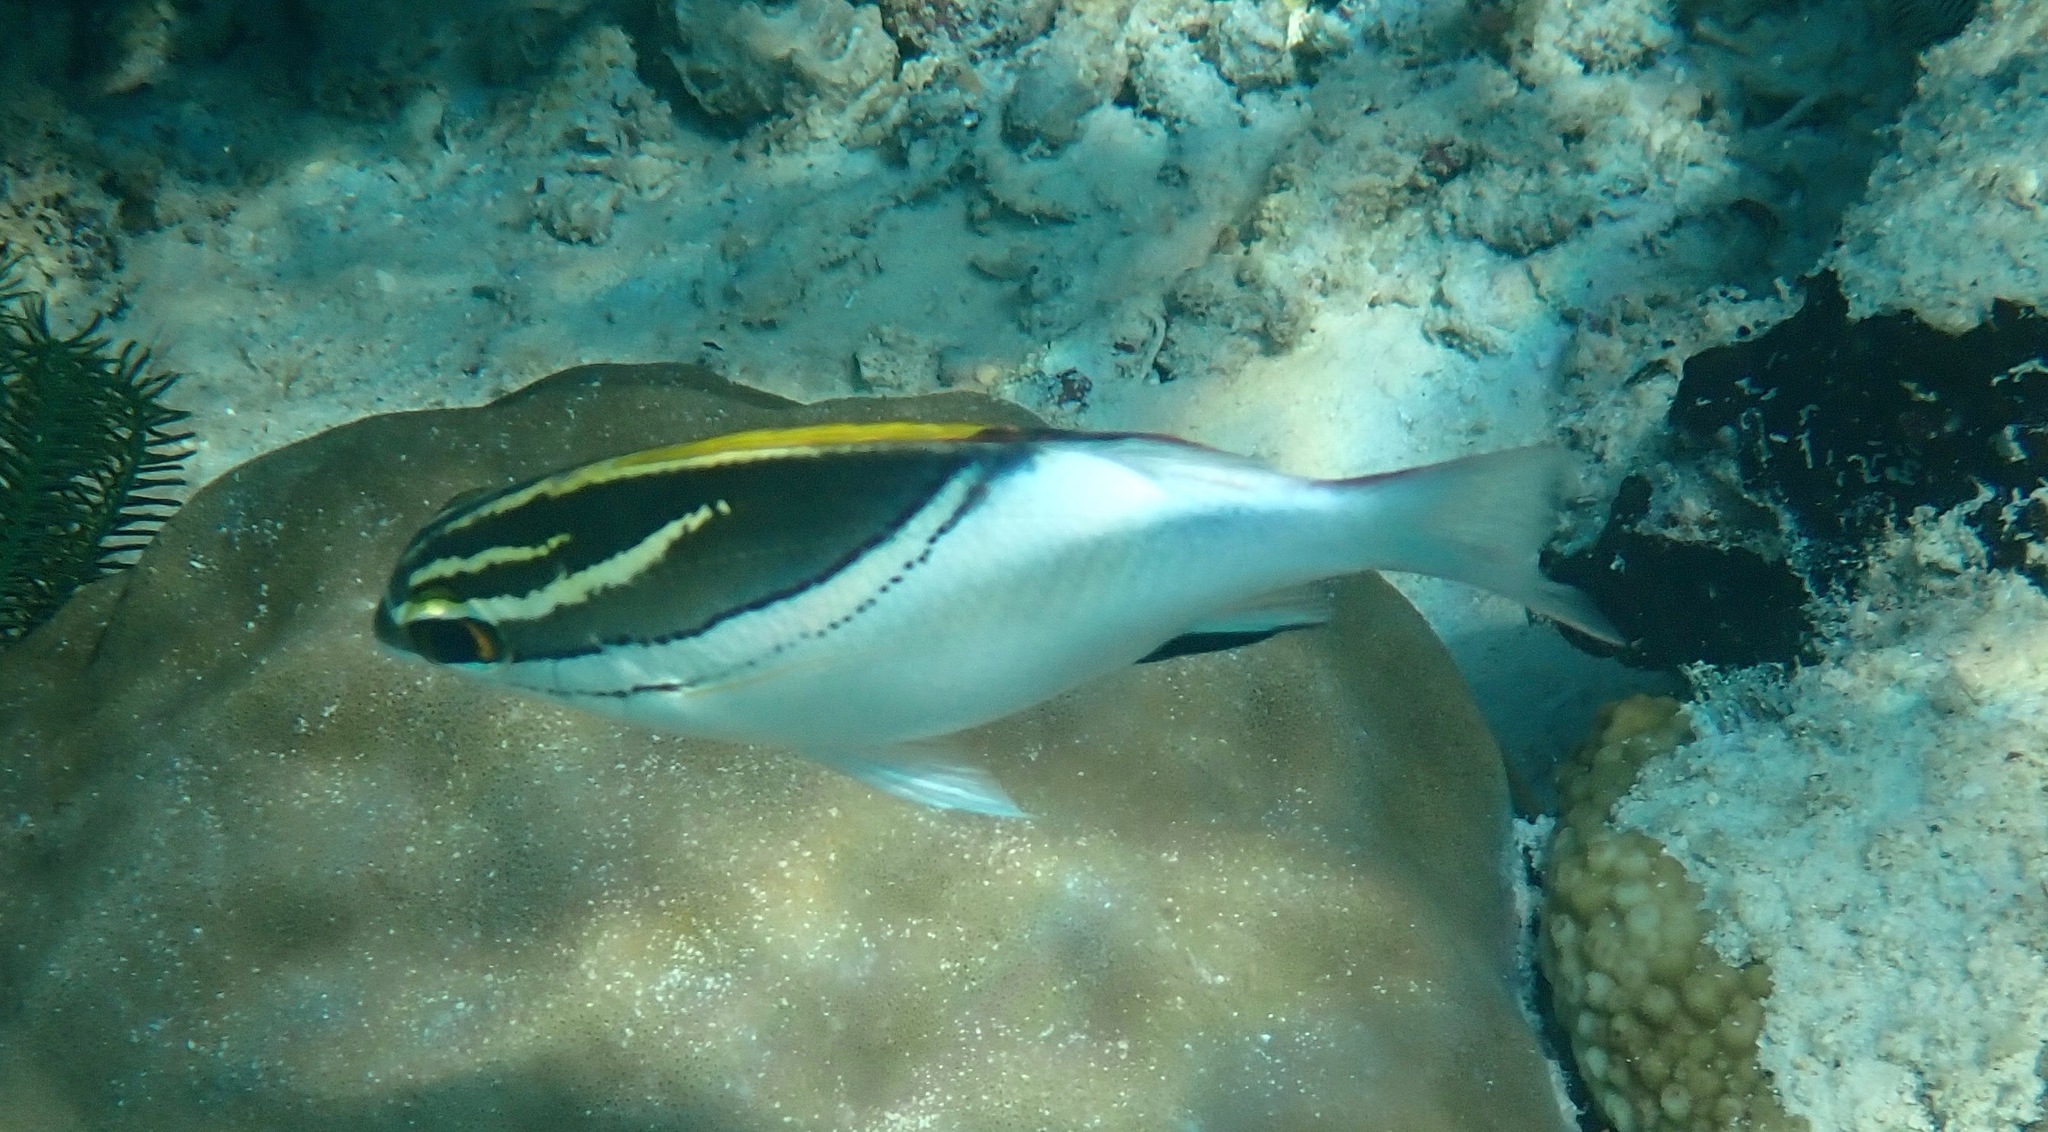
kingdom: Animalia
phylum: Chordata
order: Perciformes
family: Nemipteridae
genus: Scolopsis
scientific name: Scolopsis bilineata
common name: Two-lined monocle bream
